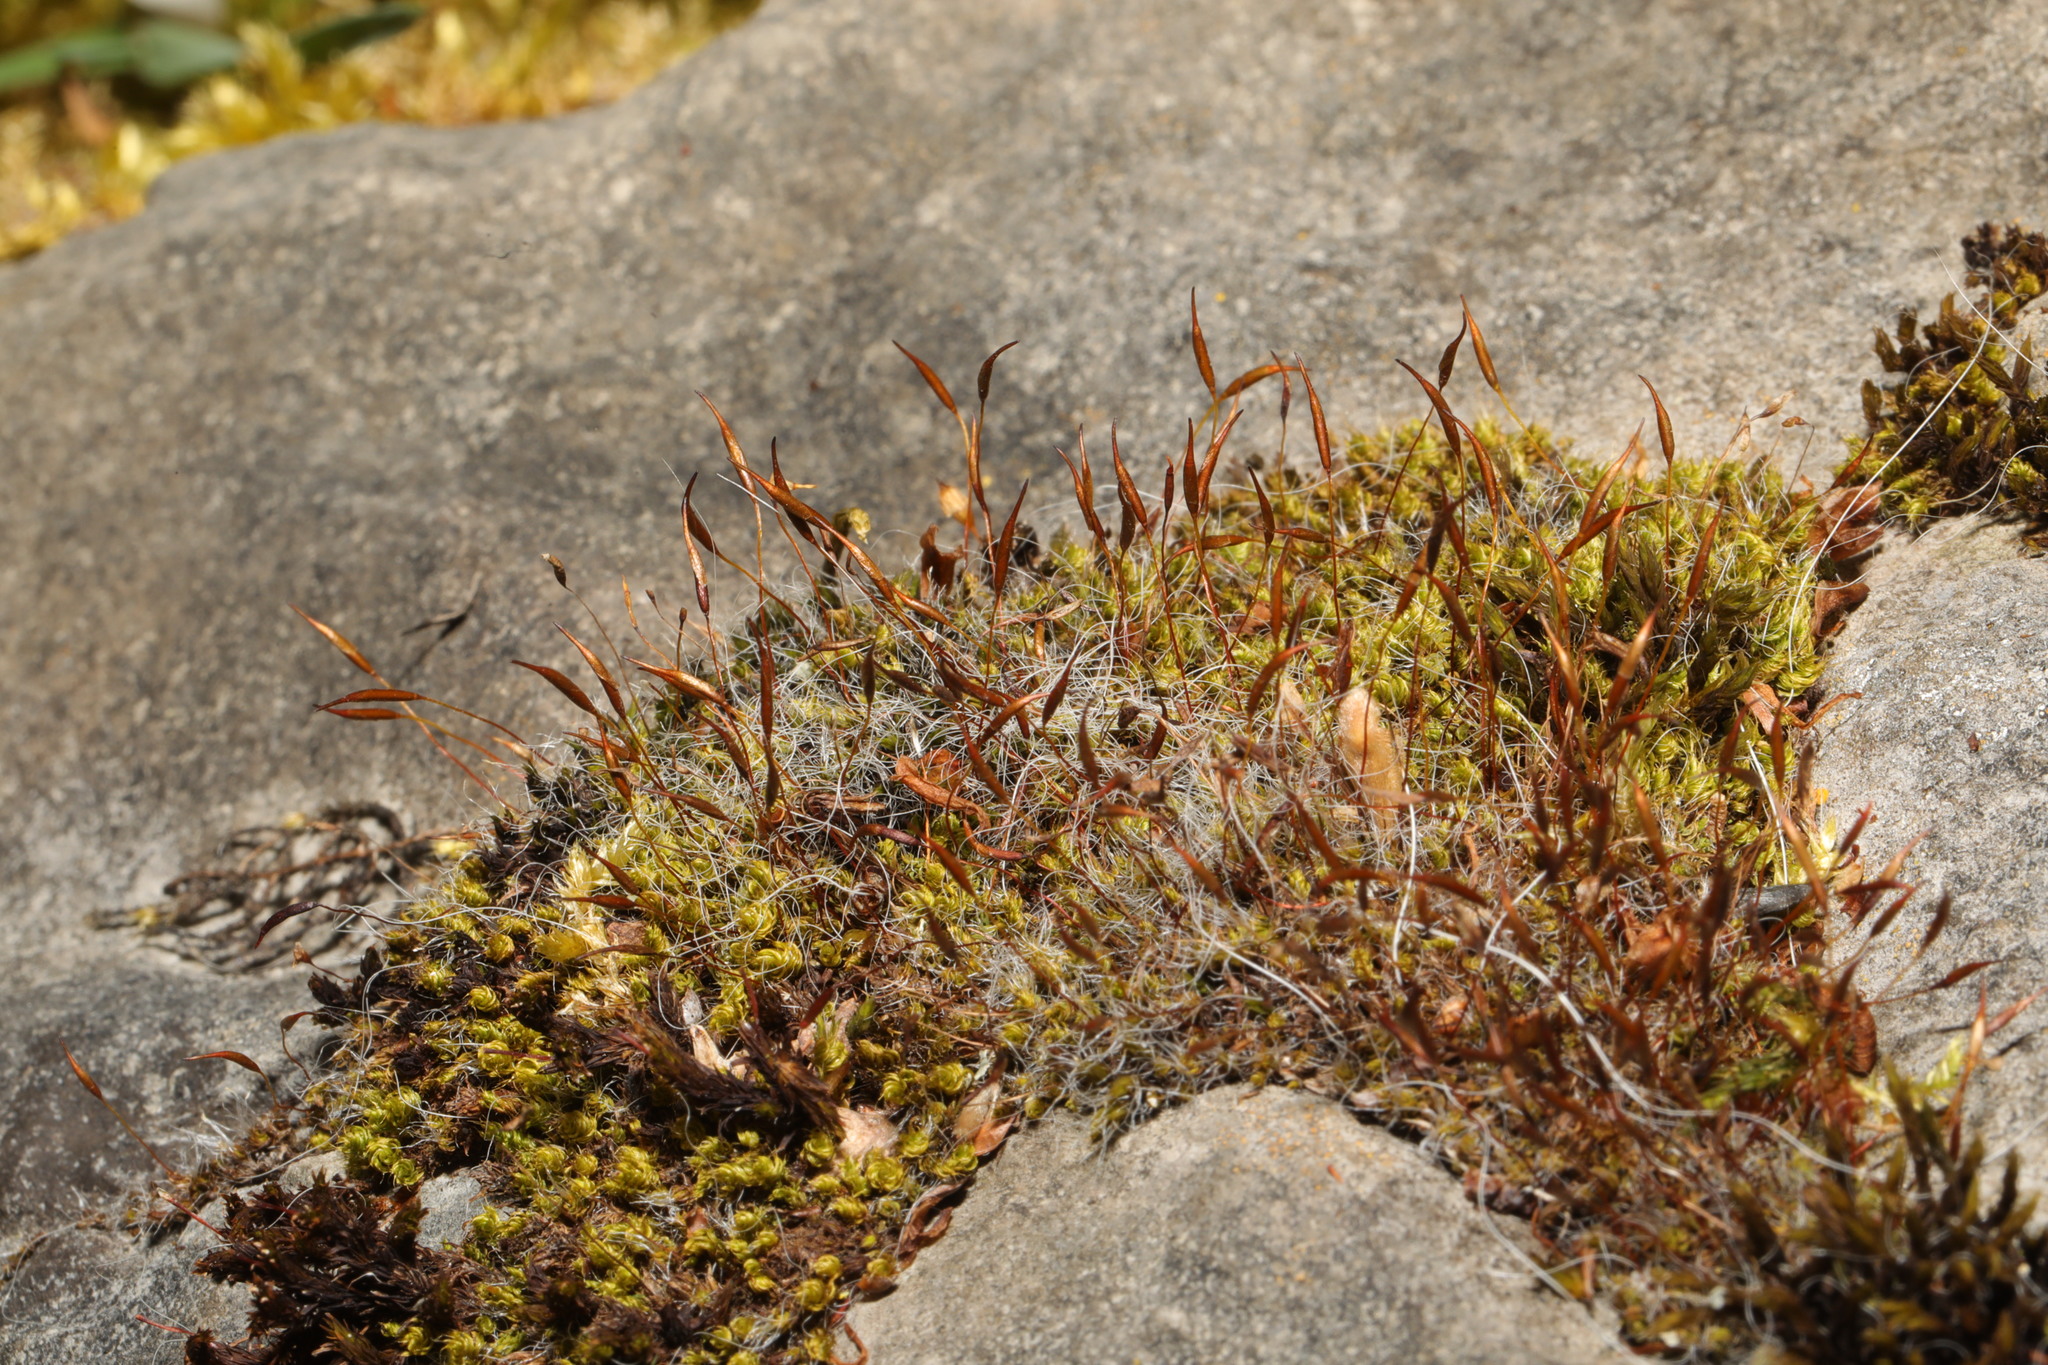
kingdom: Plantae
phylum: Bryophyta
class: Bryopsida
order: Pottiales
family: Pottiaceae
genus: Tortula
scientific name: Tortula muralis
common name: Wall screw-moss
